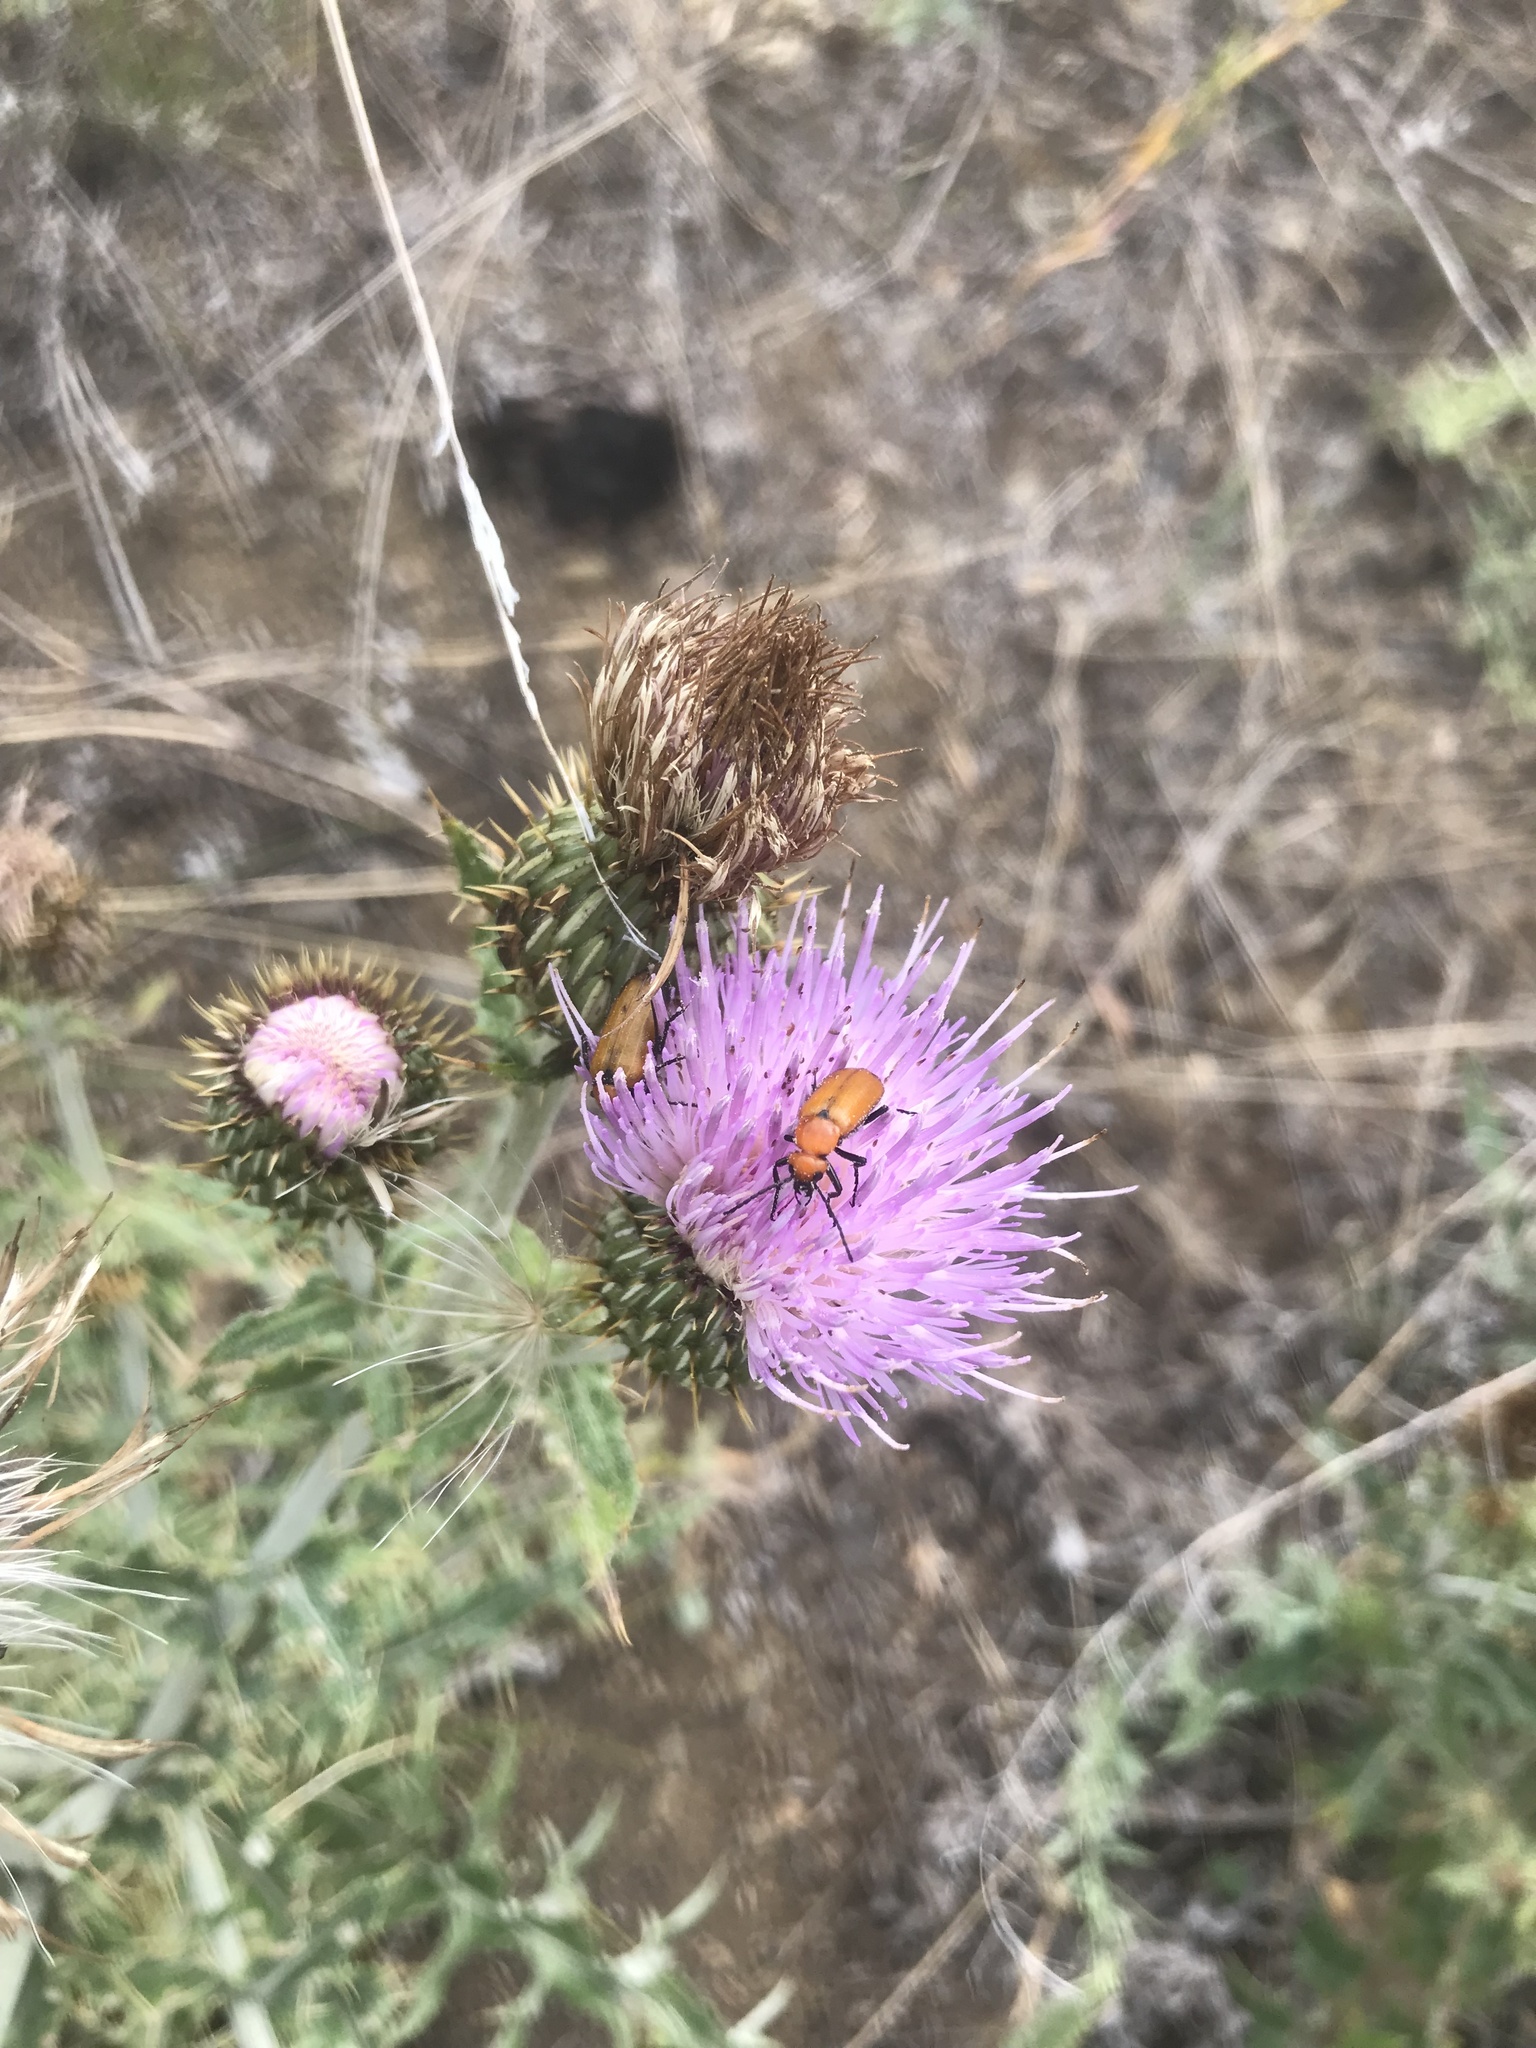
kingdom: Animalia
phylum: Arthropoda
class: Insecta
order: Coleoptera
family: Meloidae
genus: Nemognatha
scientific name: Nemognatha lutea
